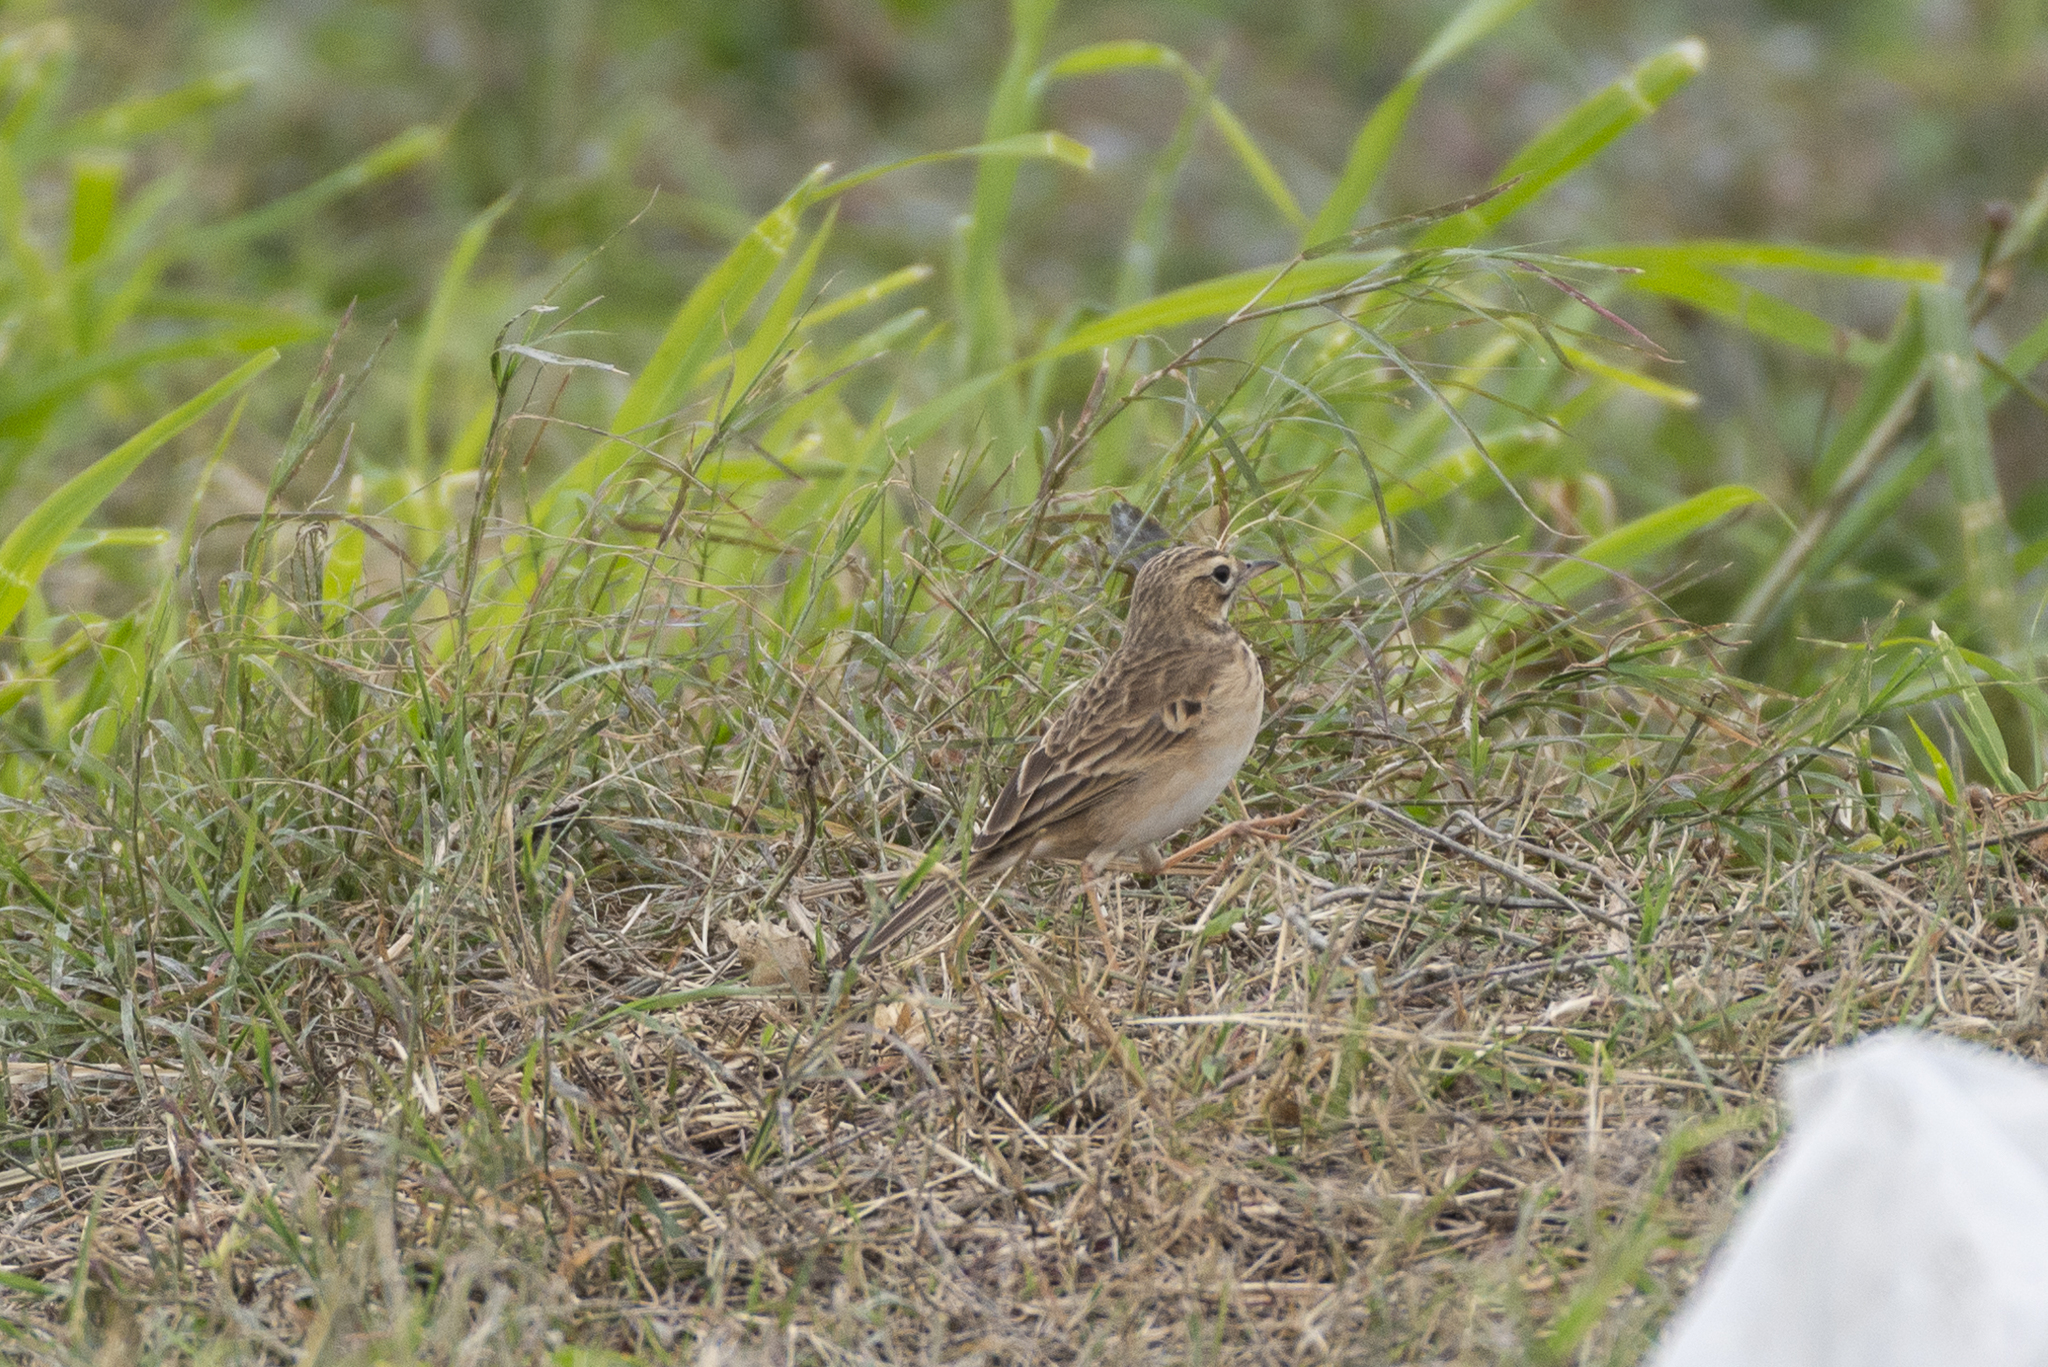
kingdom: Animalia
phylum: Chordata
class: Aves
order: Passeriformes
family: Motacillidae
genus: Anthus
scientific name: Anthus richardi
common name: Richard's pipit
